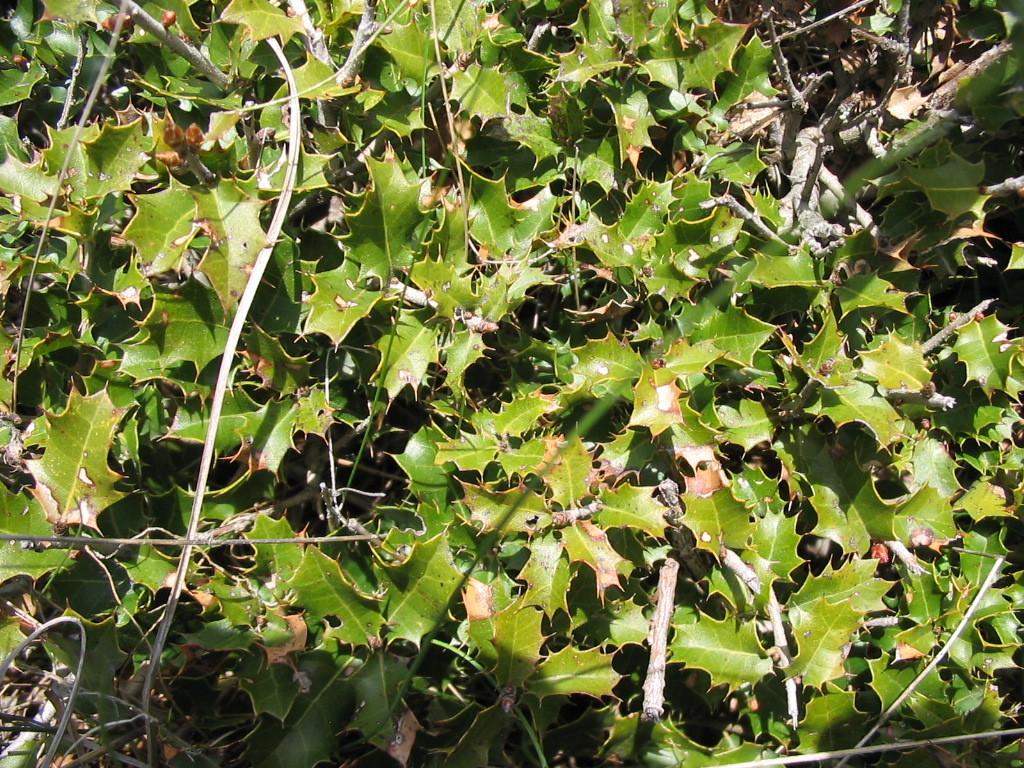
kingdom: Plantae
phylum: Tracheophyta
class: Magnoliopsida
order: Fagales
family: Fagaceae
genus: Quercus
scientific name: Quercus coccifera
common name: Kermes oak
